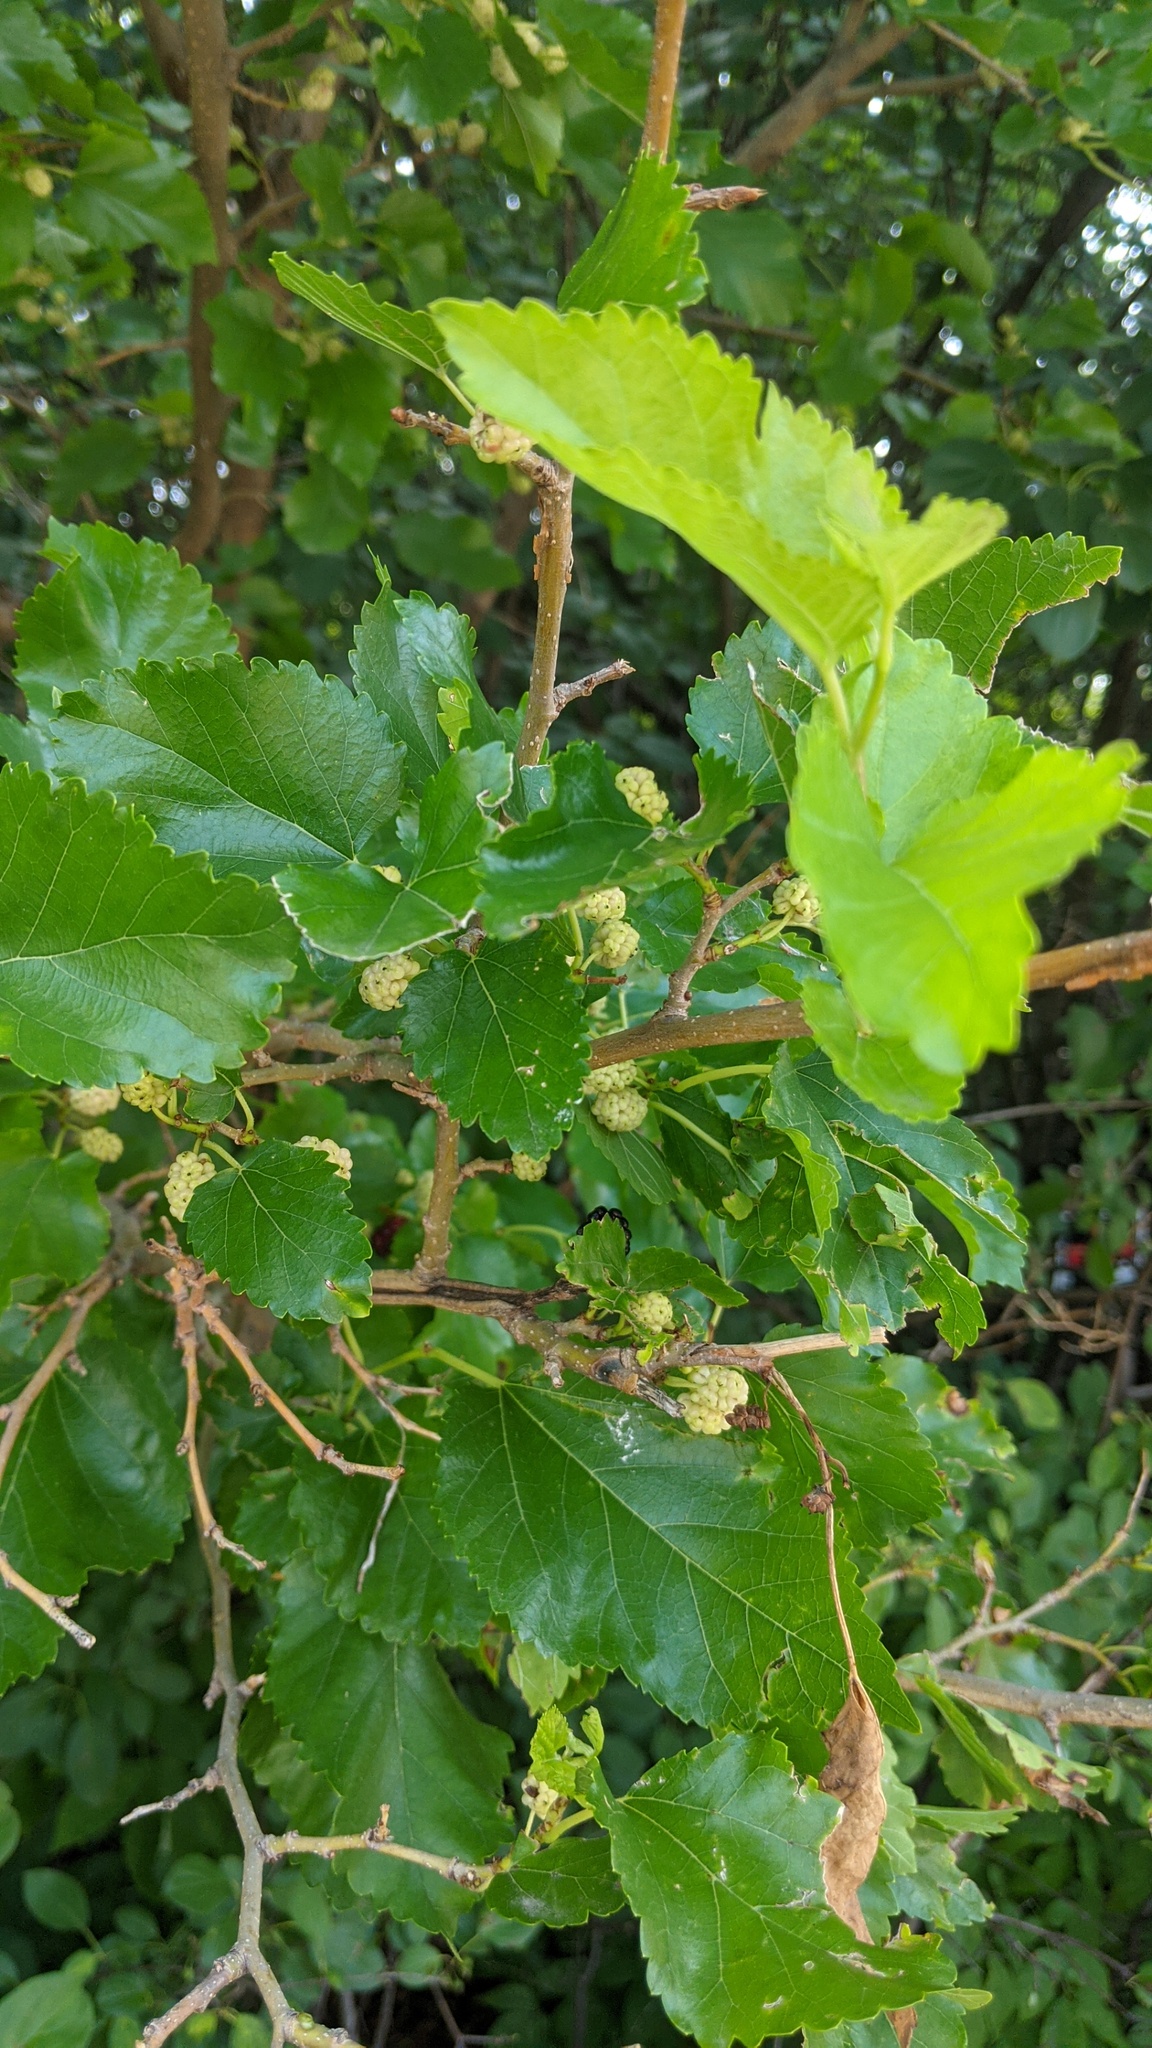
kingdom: Plantae
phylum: Tracheophyta
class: Magnoliopsida
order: Rosales
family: Moraceae
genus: Morus
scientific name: Morus alba
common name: White mulberry
